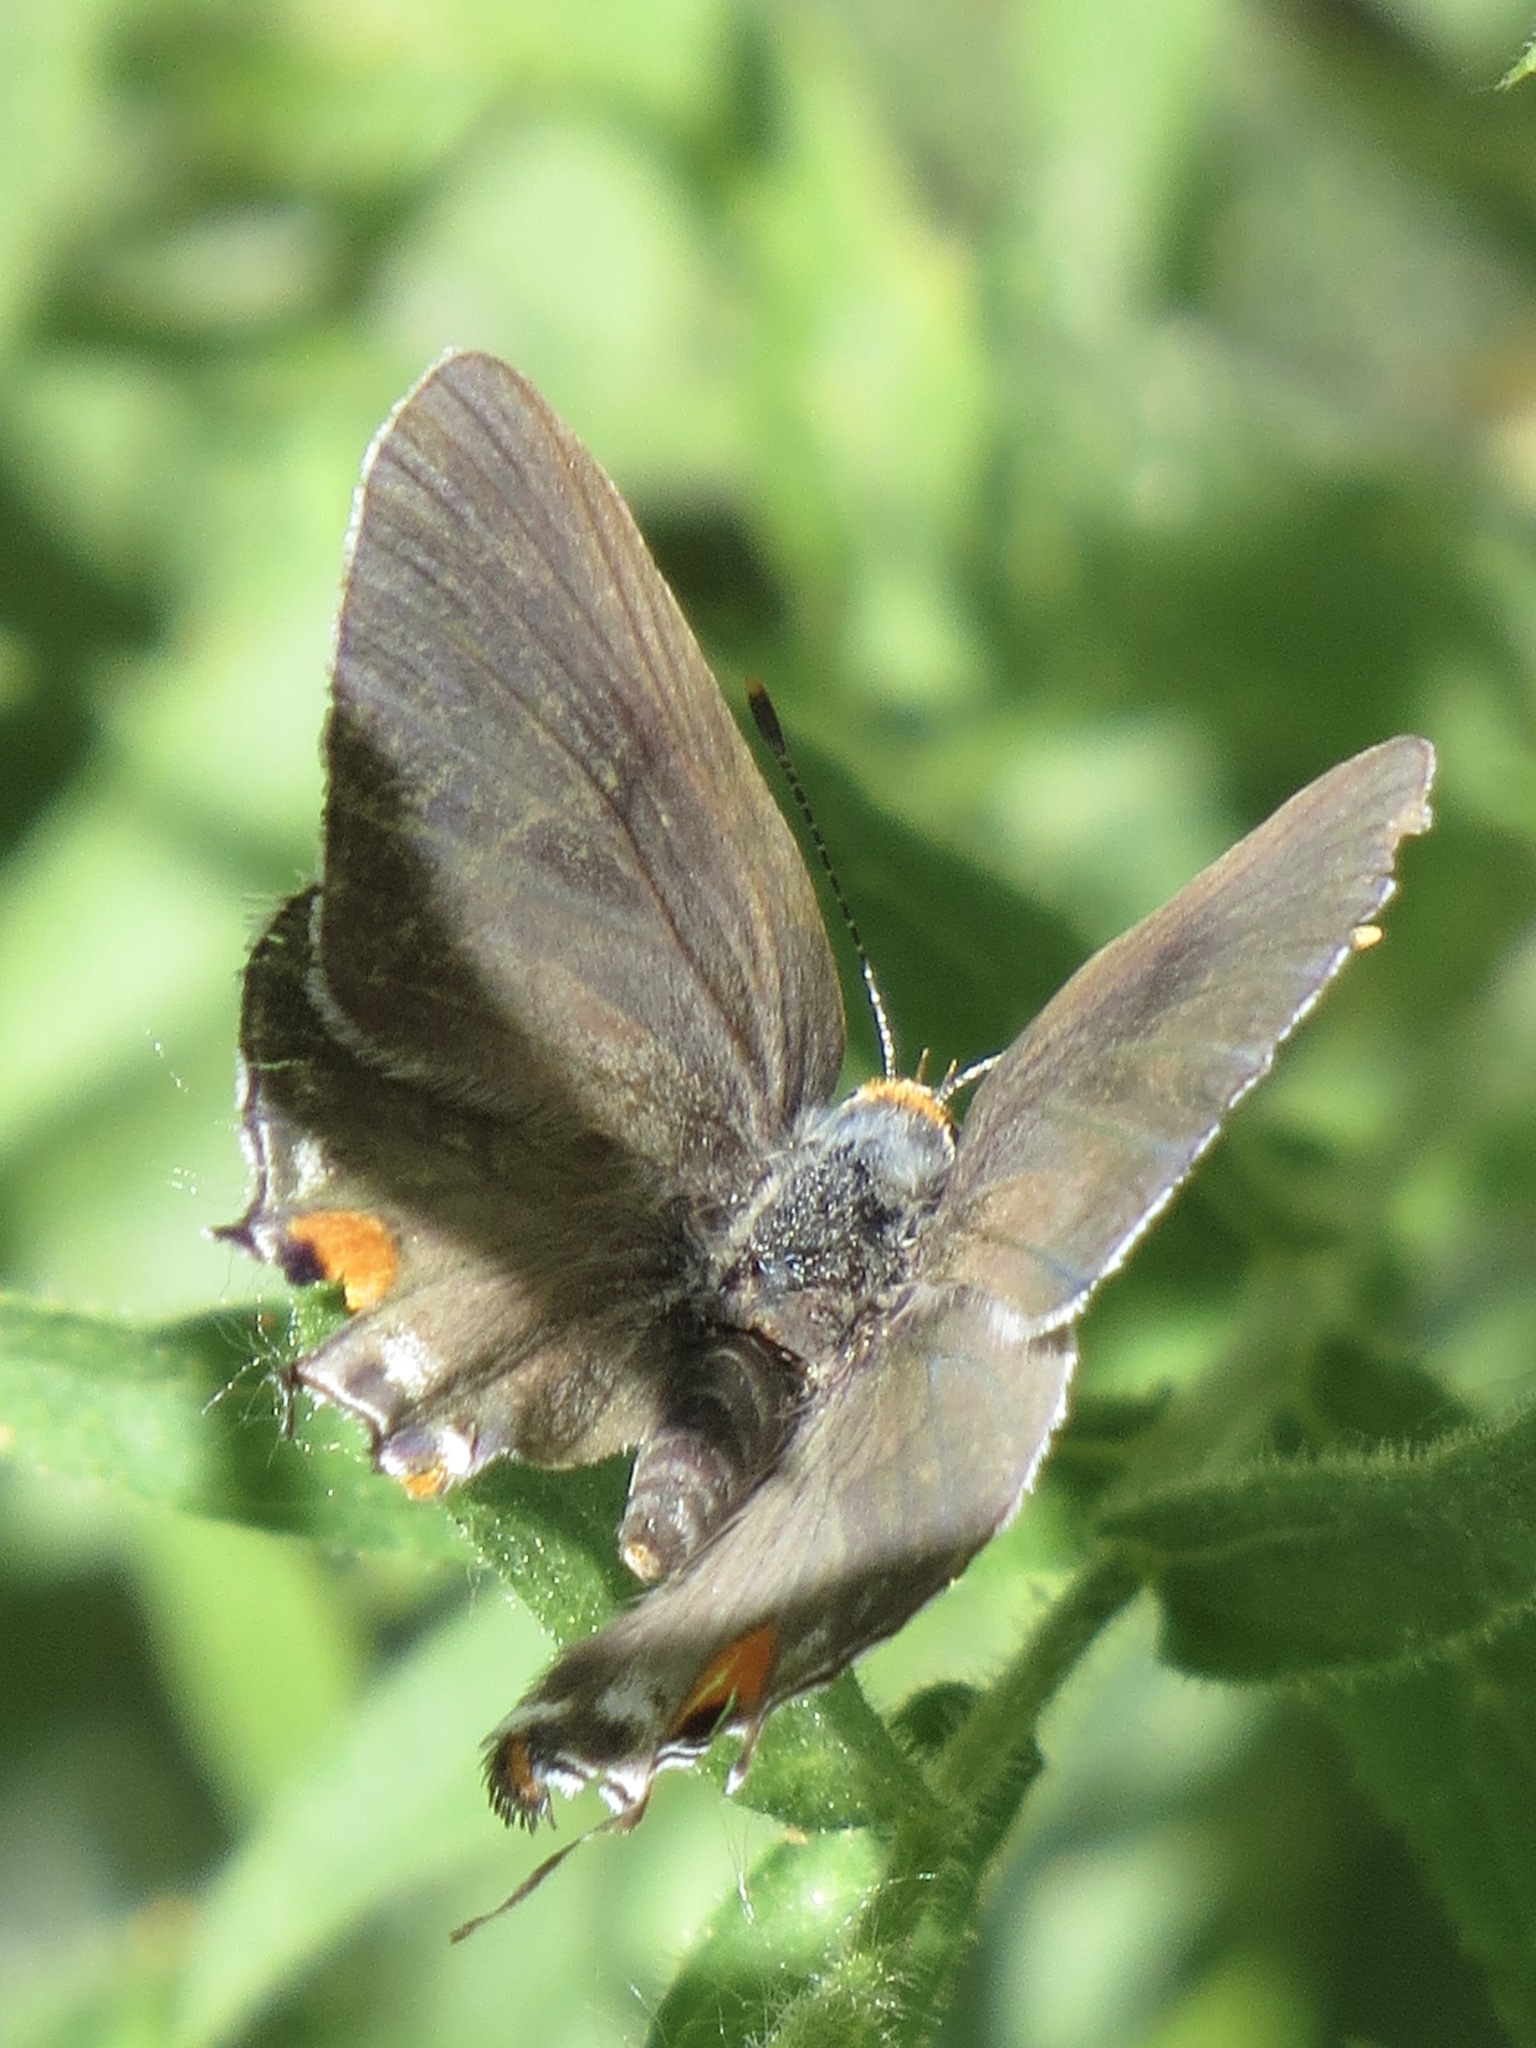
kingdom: Animalia
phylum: Arthropoda
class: Insecta
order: Lepidoptera
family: Lycaenidae
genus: Strymon
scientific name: Strymon melinus
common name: Gray hairstreak
